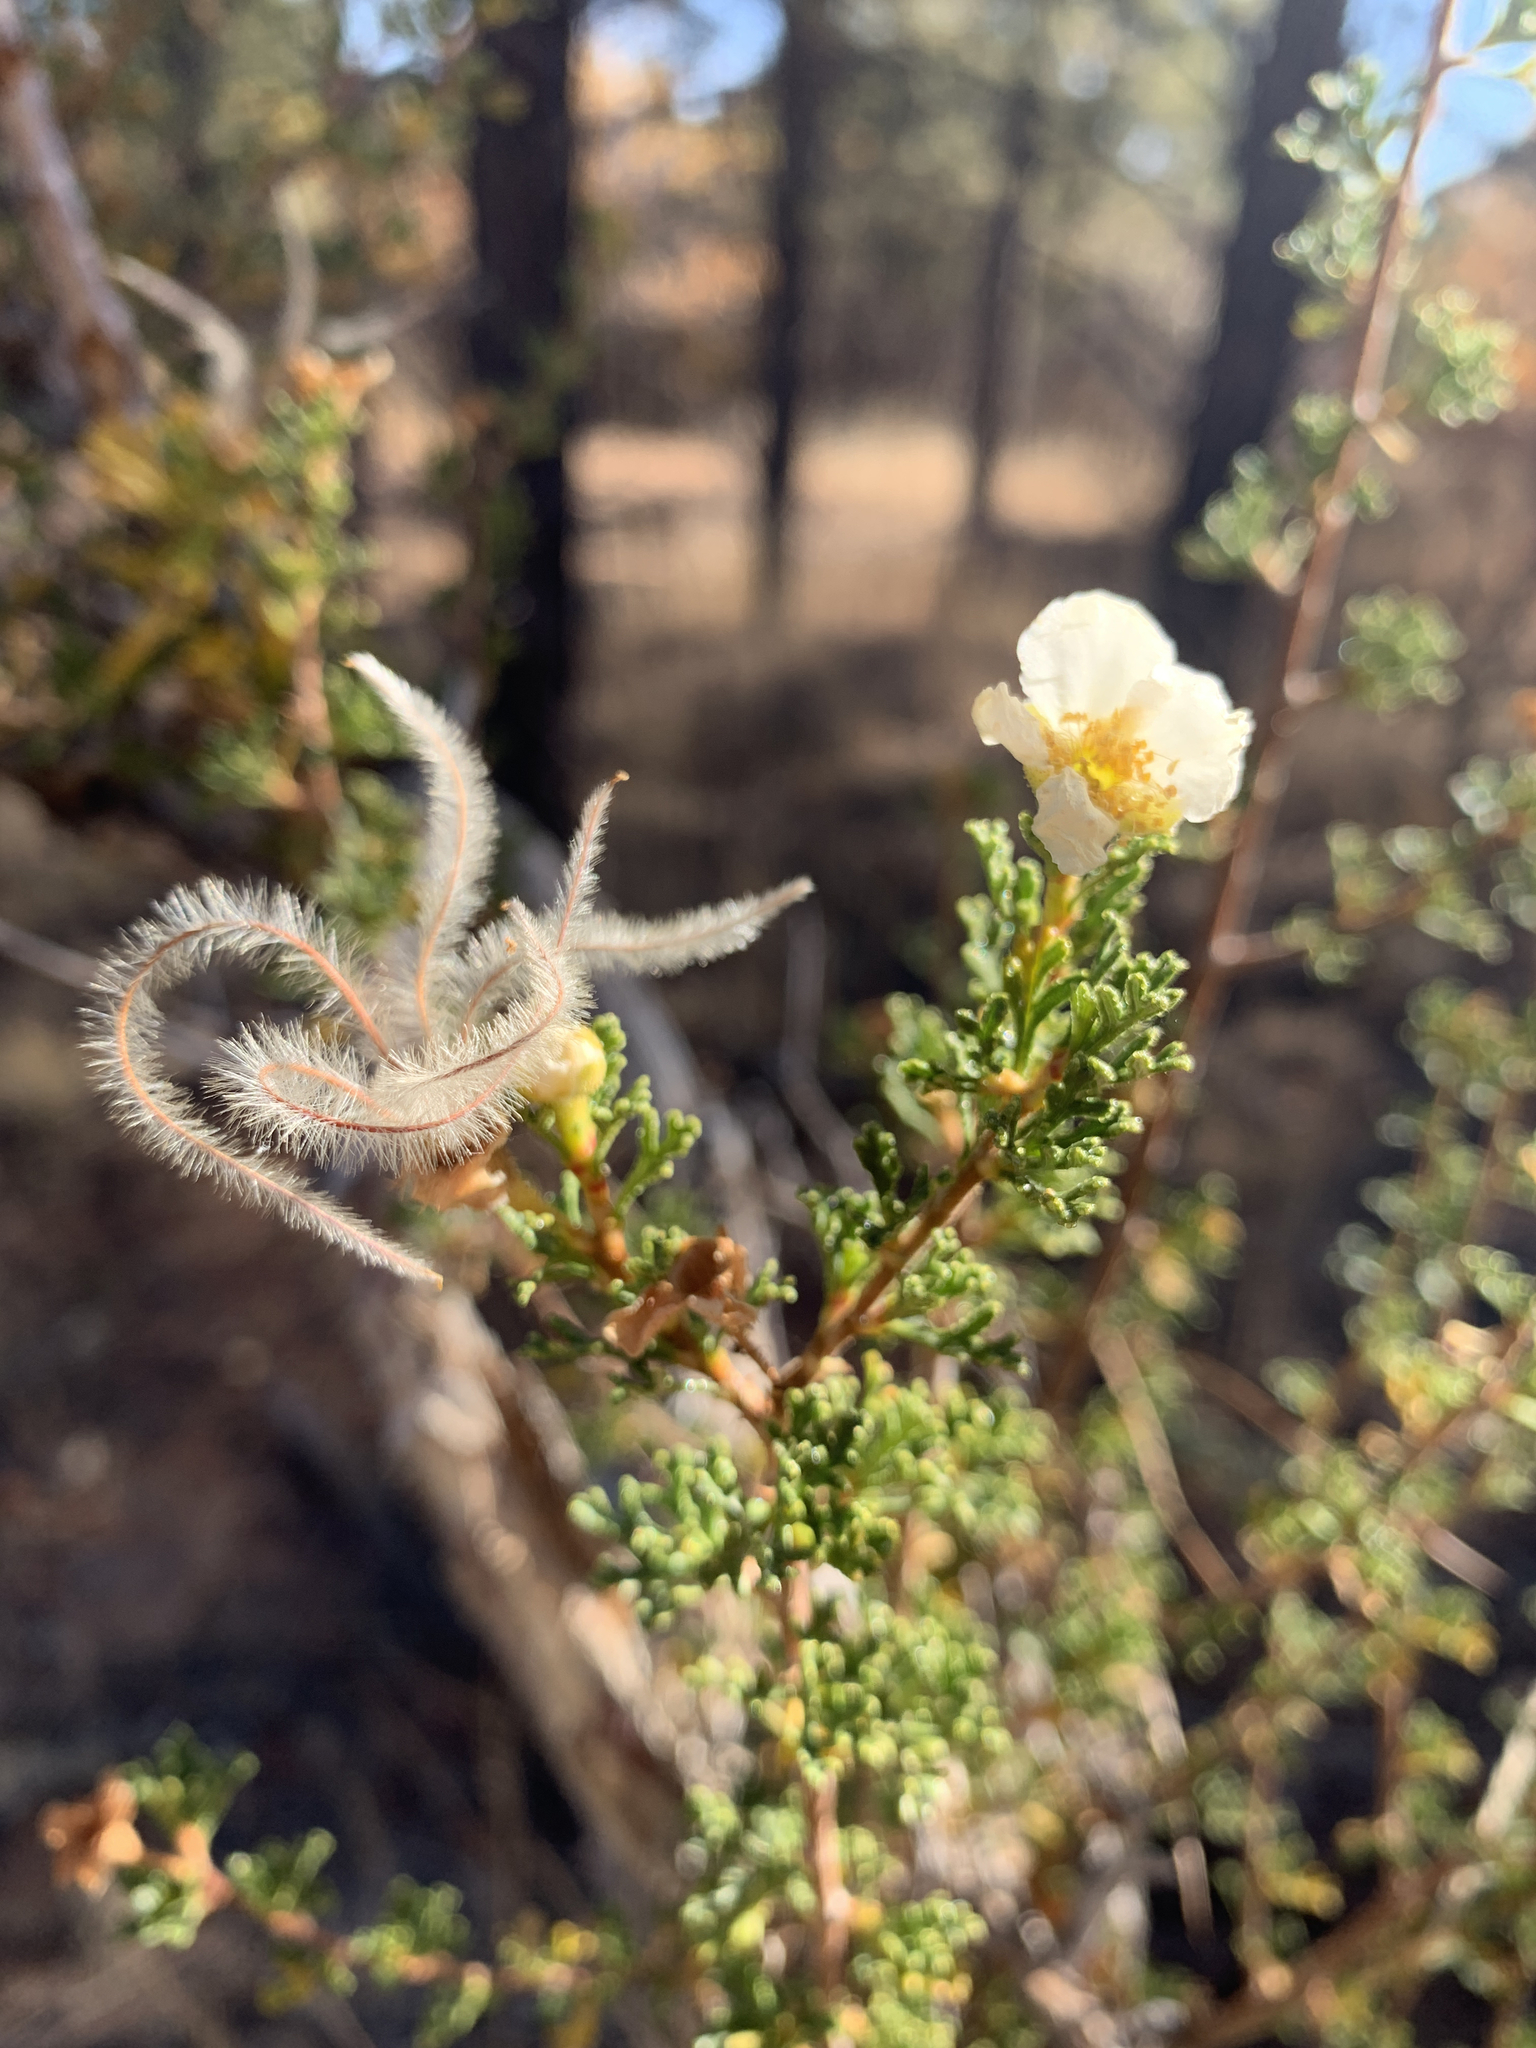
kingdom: Plantae
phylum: Tracheophyta
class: Magnoliopsida
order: Rosales
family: Rosaceae
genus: Purshia
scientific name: Purshia stansburiana
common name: Stansbury's cliffrose
